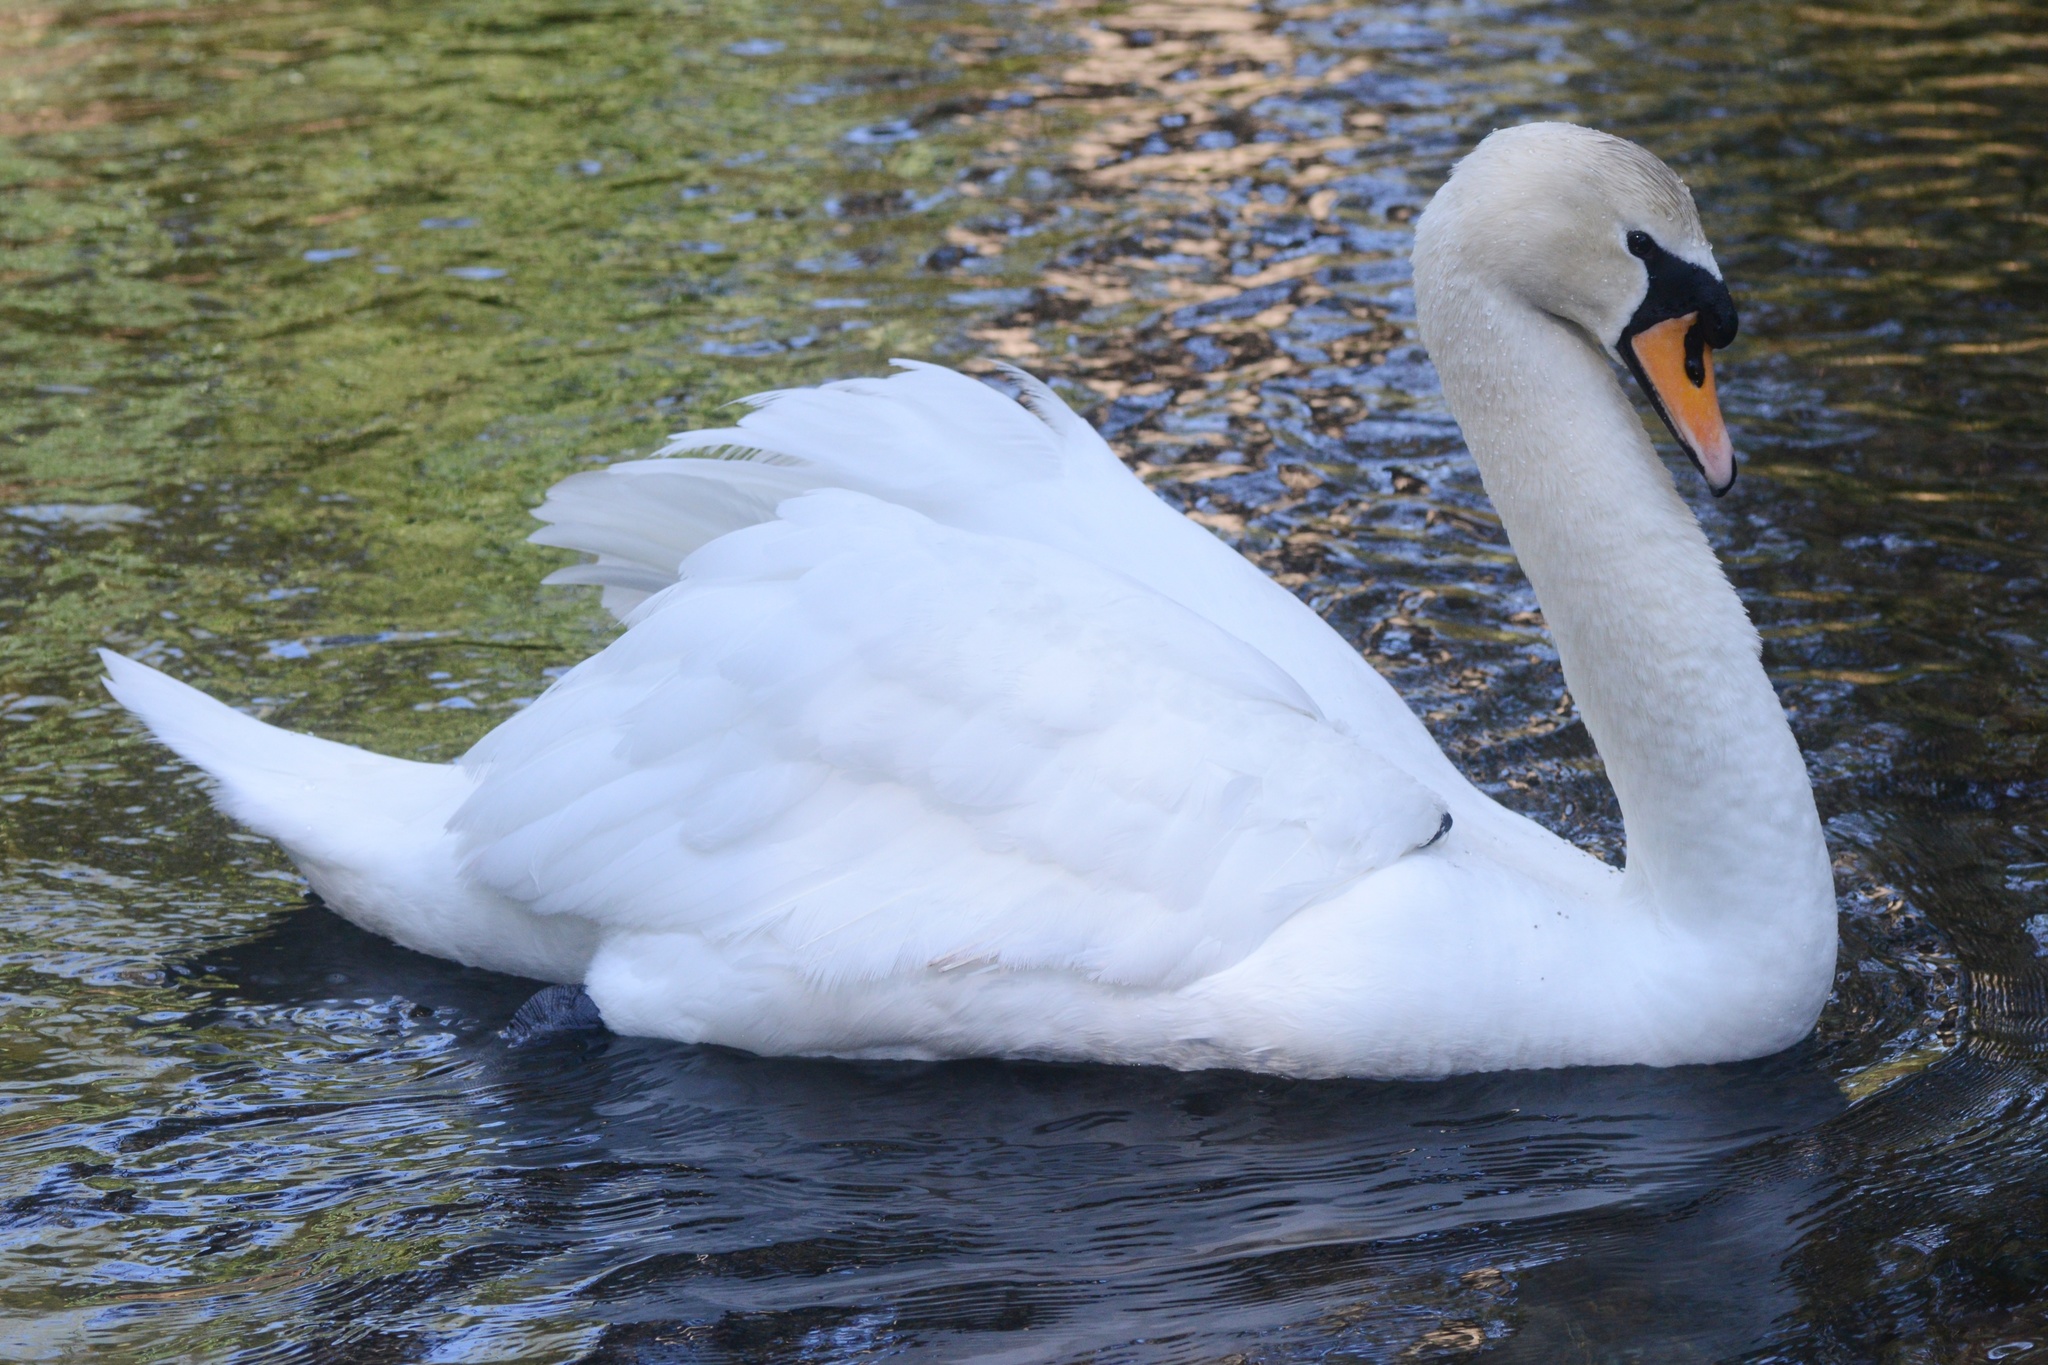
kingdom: Animalia
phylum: Chordata
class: Aves
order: Anseriformes
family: Anatidae
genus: Cygnus
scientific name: Cygnus olor
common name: Mute swan
